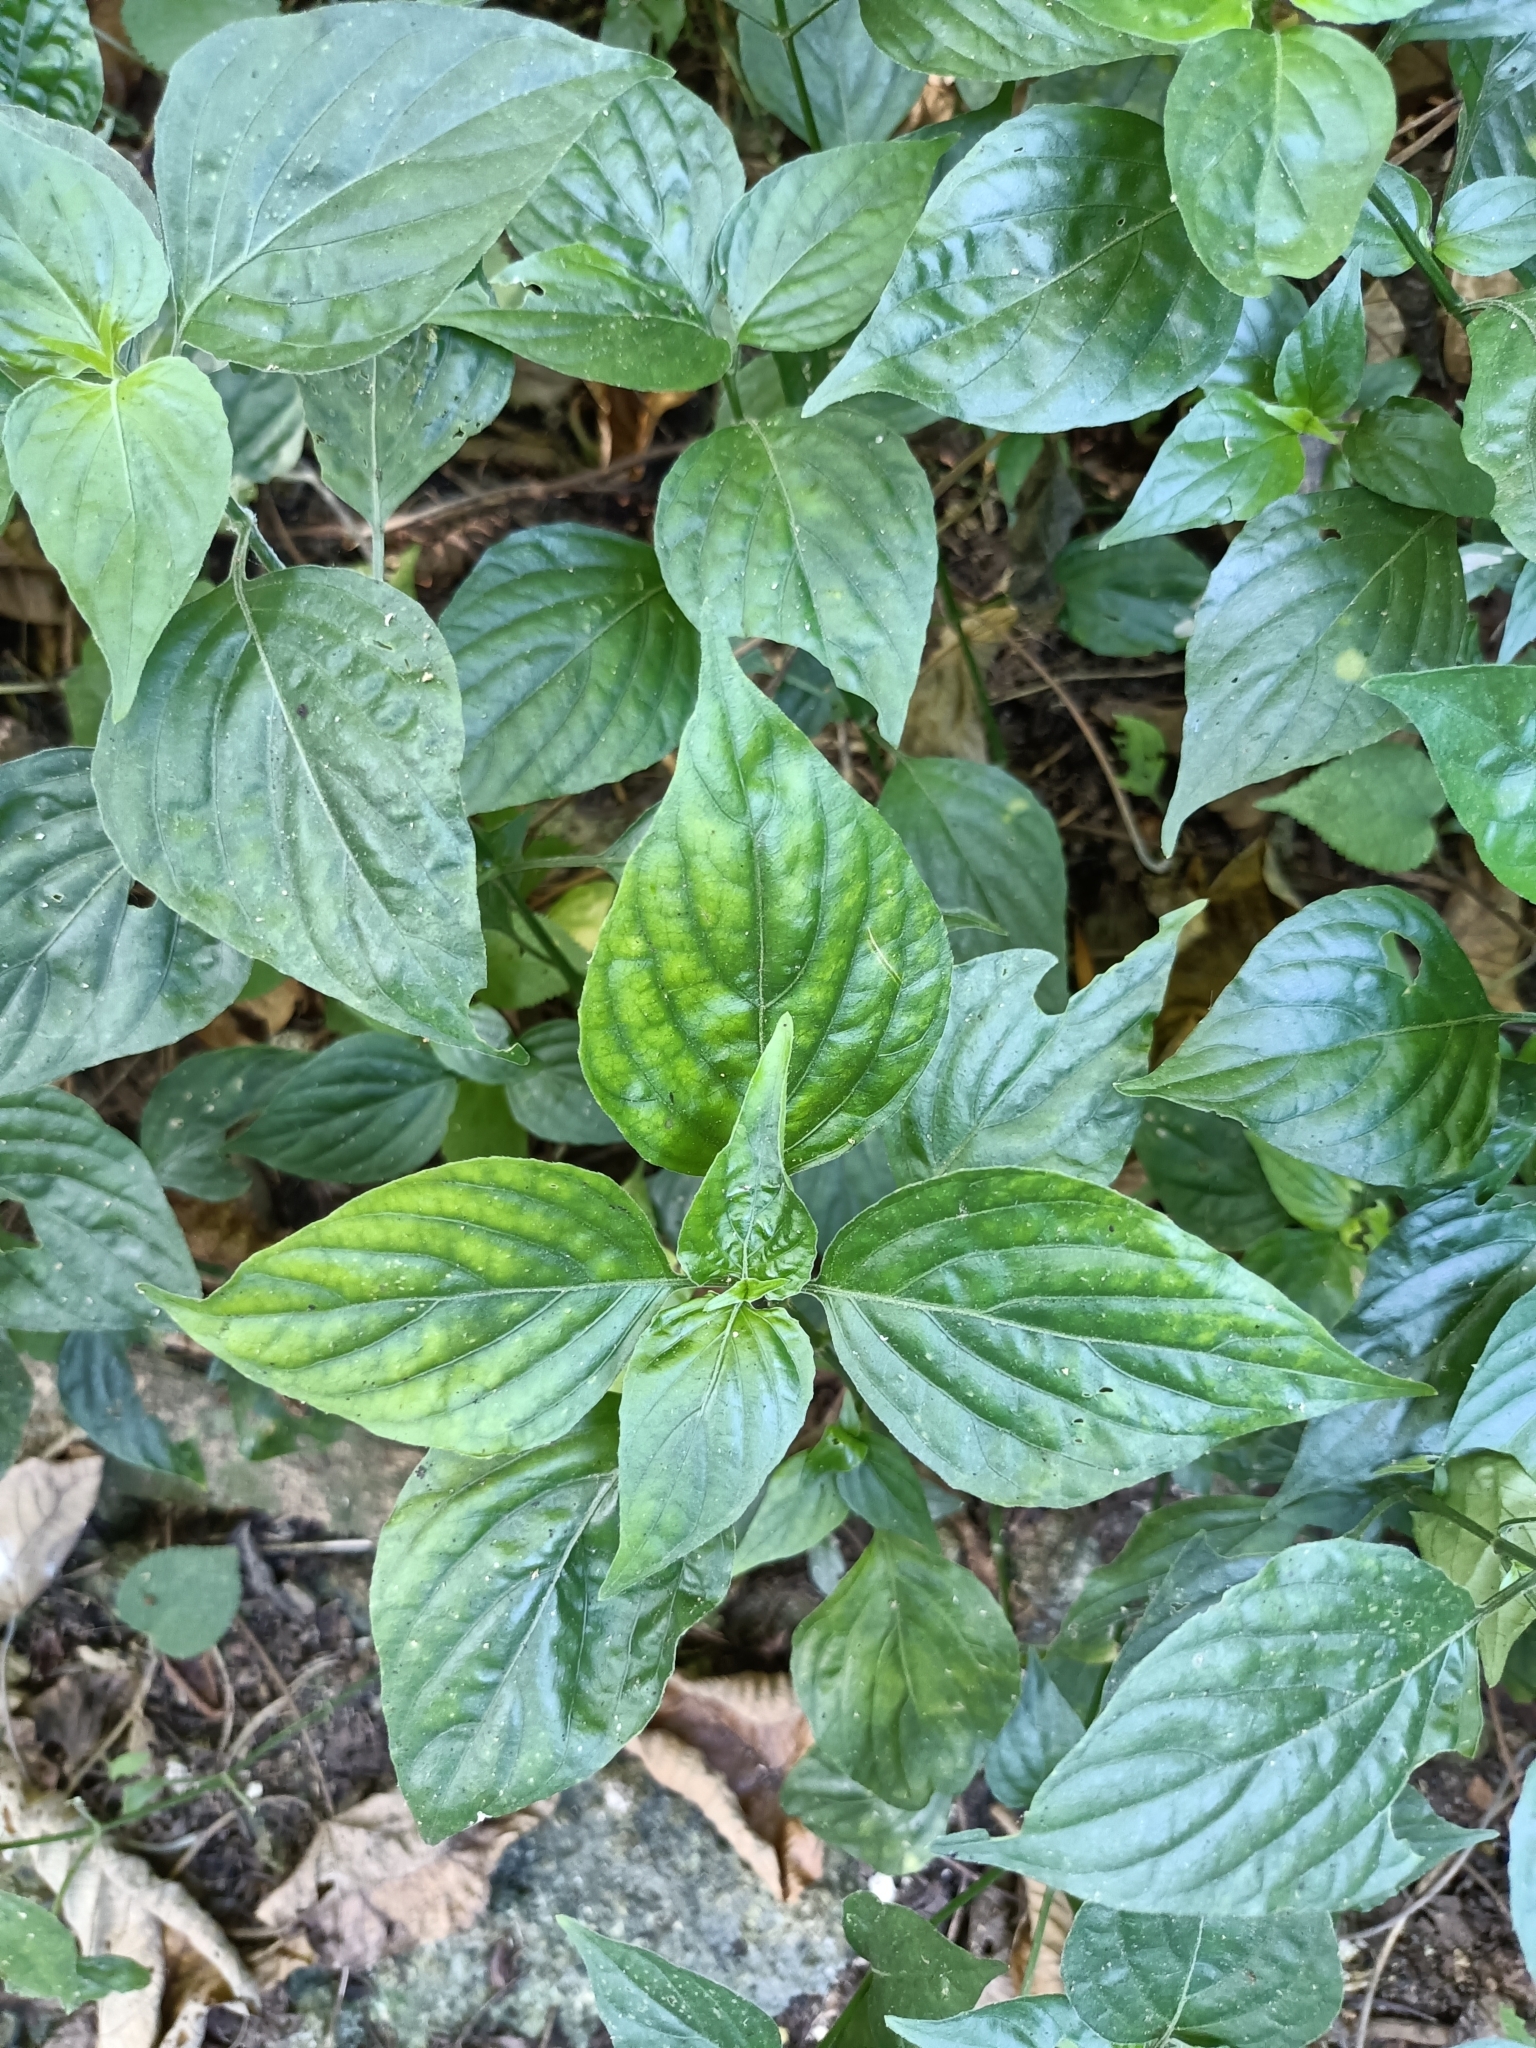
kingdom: Plantae
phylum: Tracheophyta
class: Magnoliopsida
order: Lamiales
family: Acanthaceae
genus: Dicliptera
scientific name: Dicliptera chinensis
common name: Chinese foldwing
